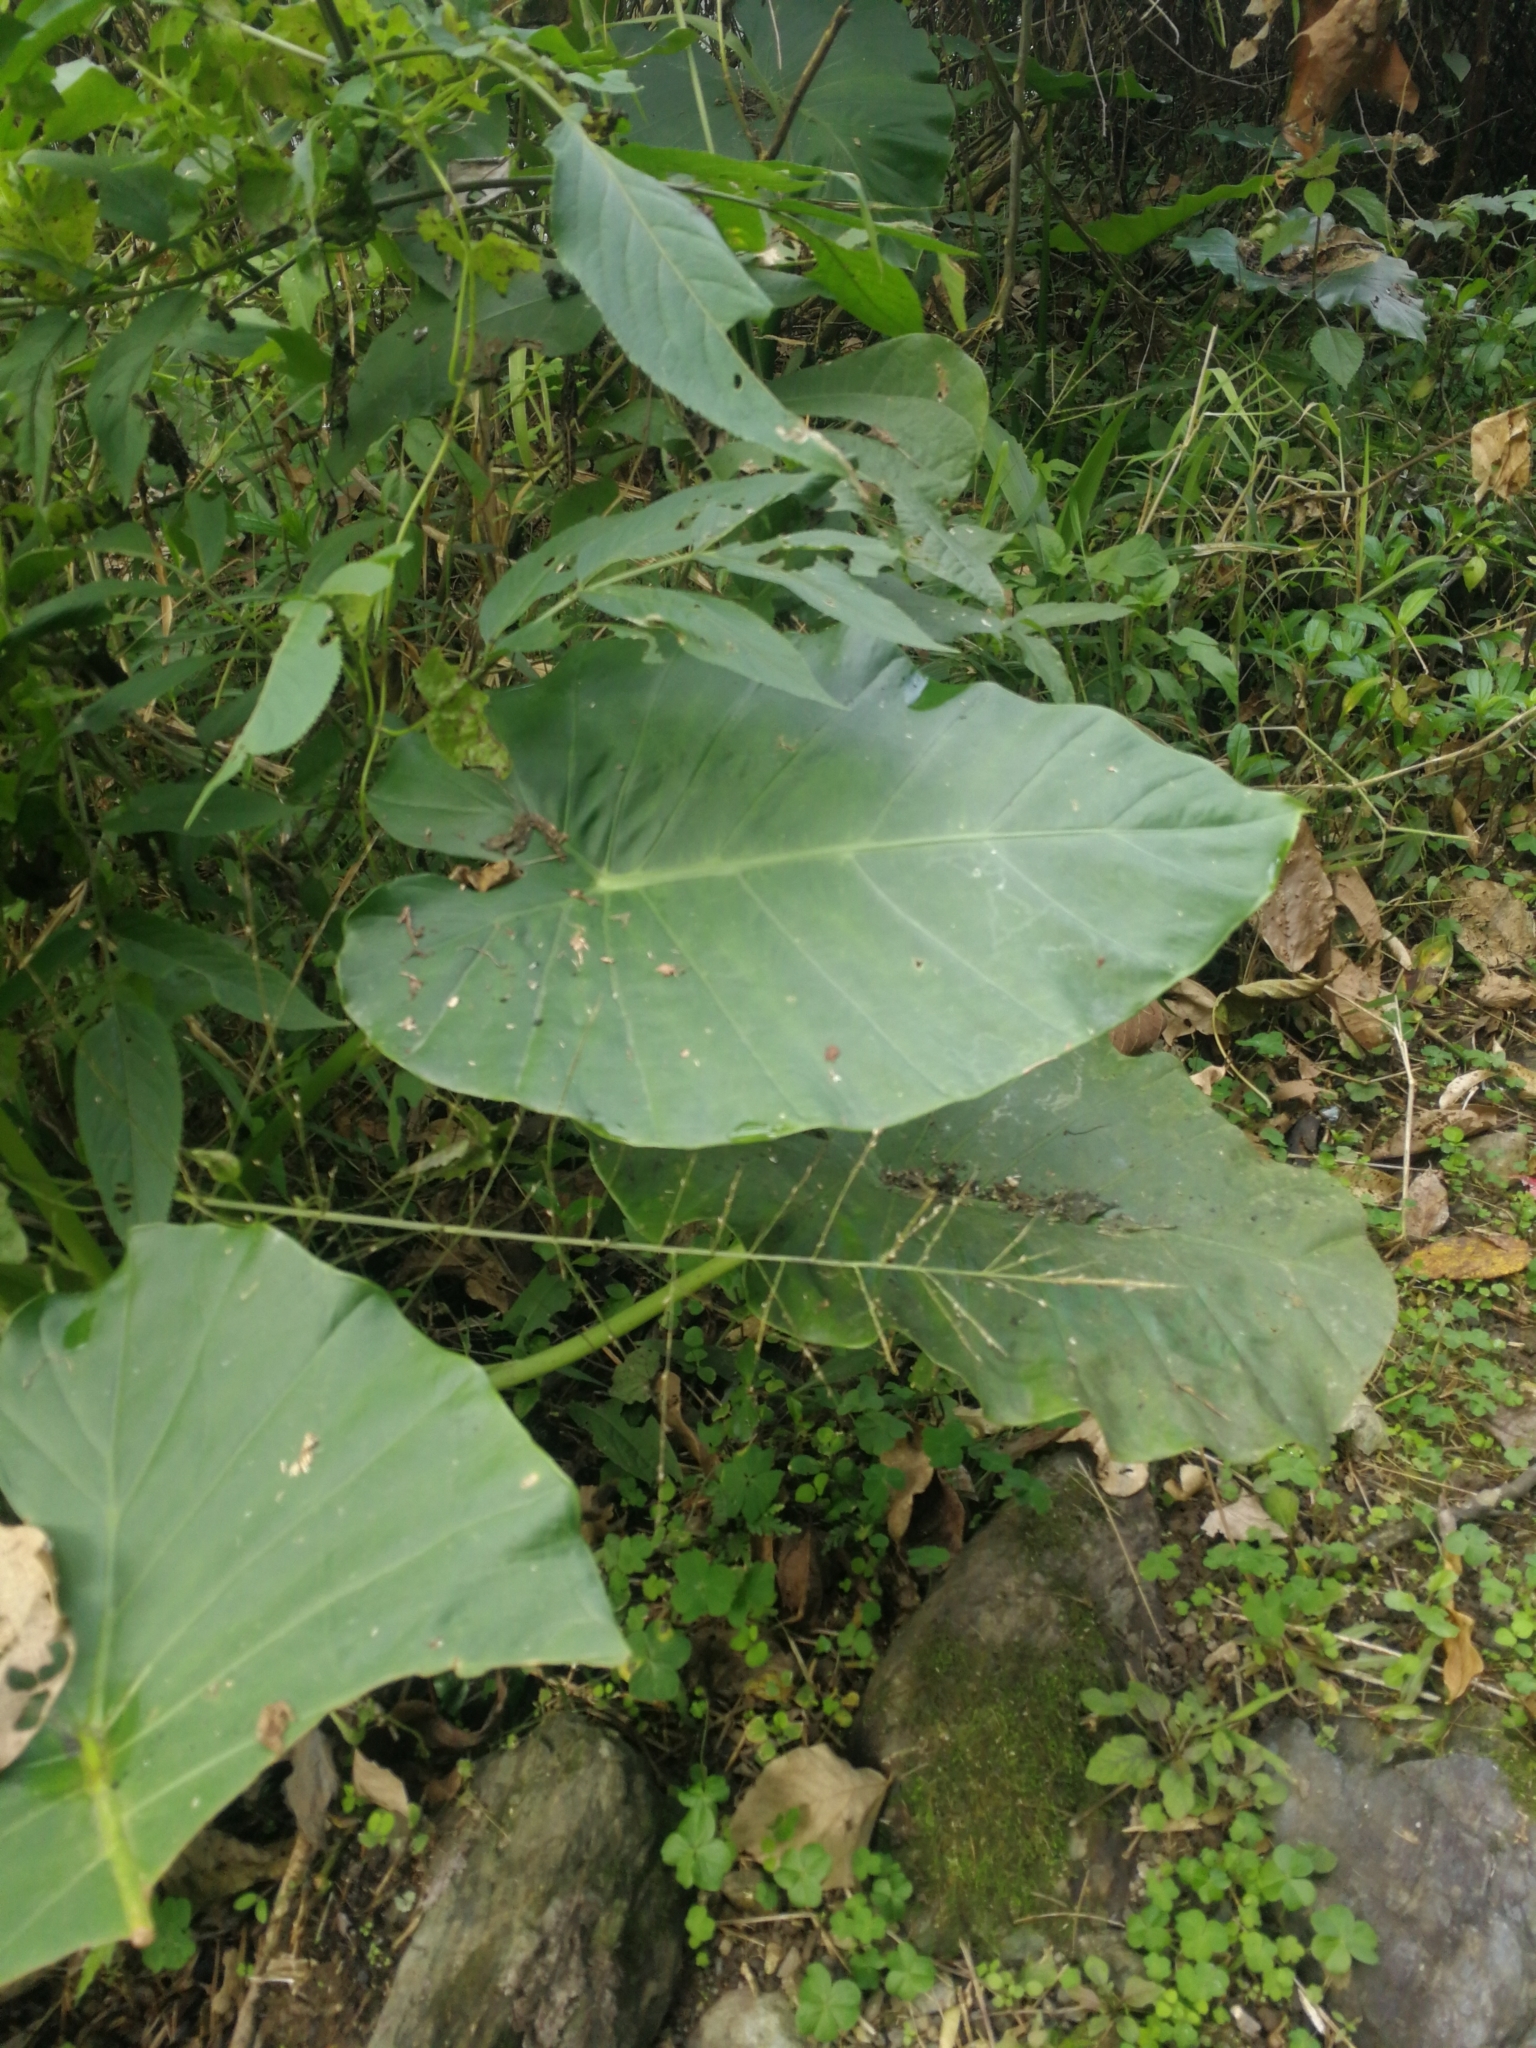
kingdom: Plantae
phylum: Tracheophyta
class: Liliopsida
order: Alismatales
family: Araceae
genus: Alocasia
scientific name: Alocasia odora
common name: Asian taro
